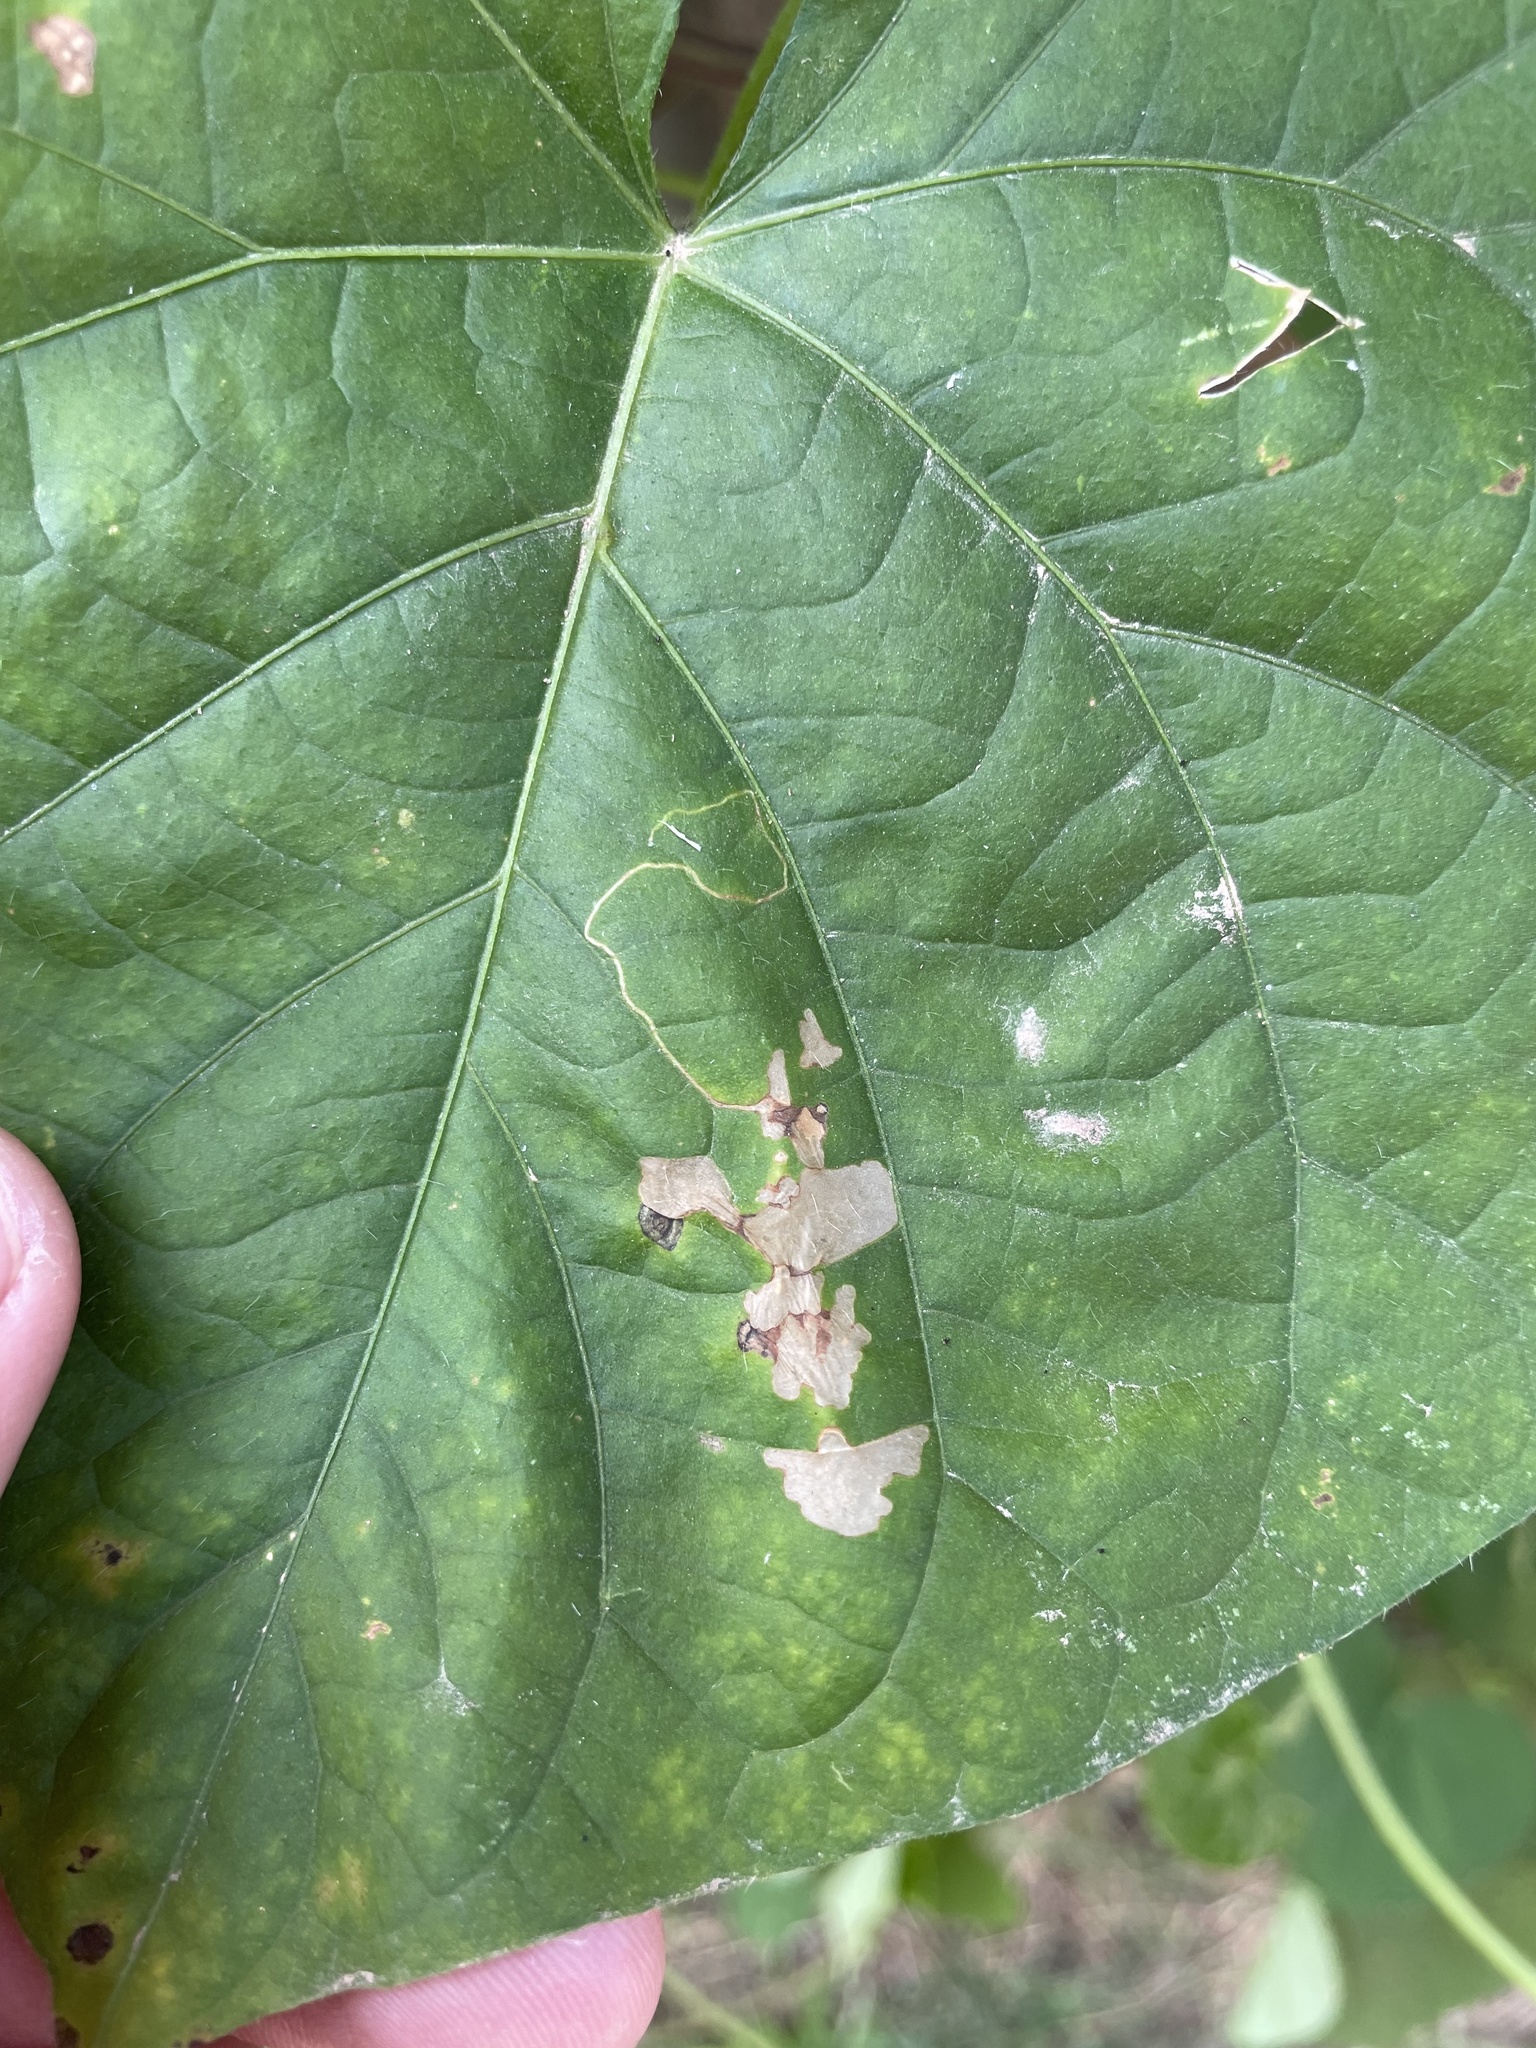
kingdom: Animalia
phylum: Arthropoda
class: Insecta
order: Lepidoptera
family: Bedelliidae
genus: Bedellia
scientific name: Bedellia somnulentella
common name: Morning-glory leafminer moth
